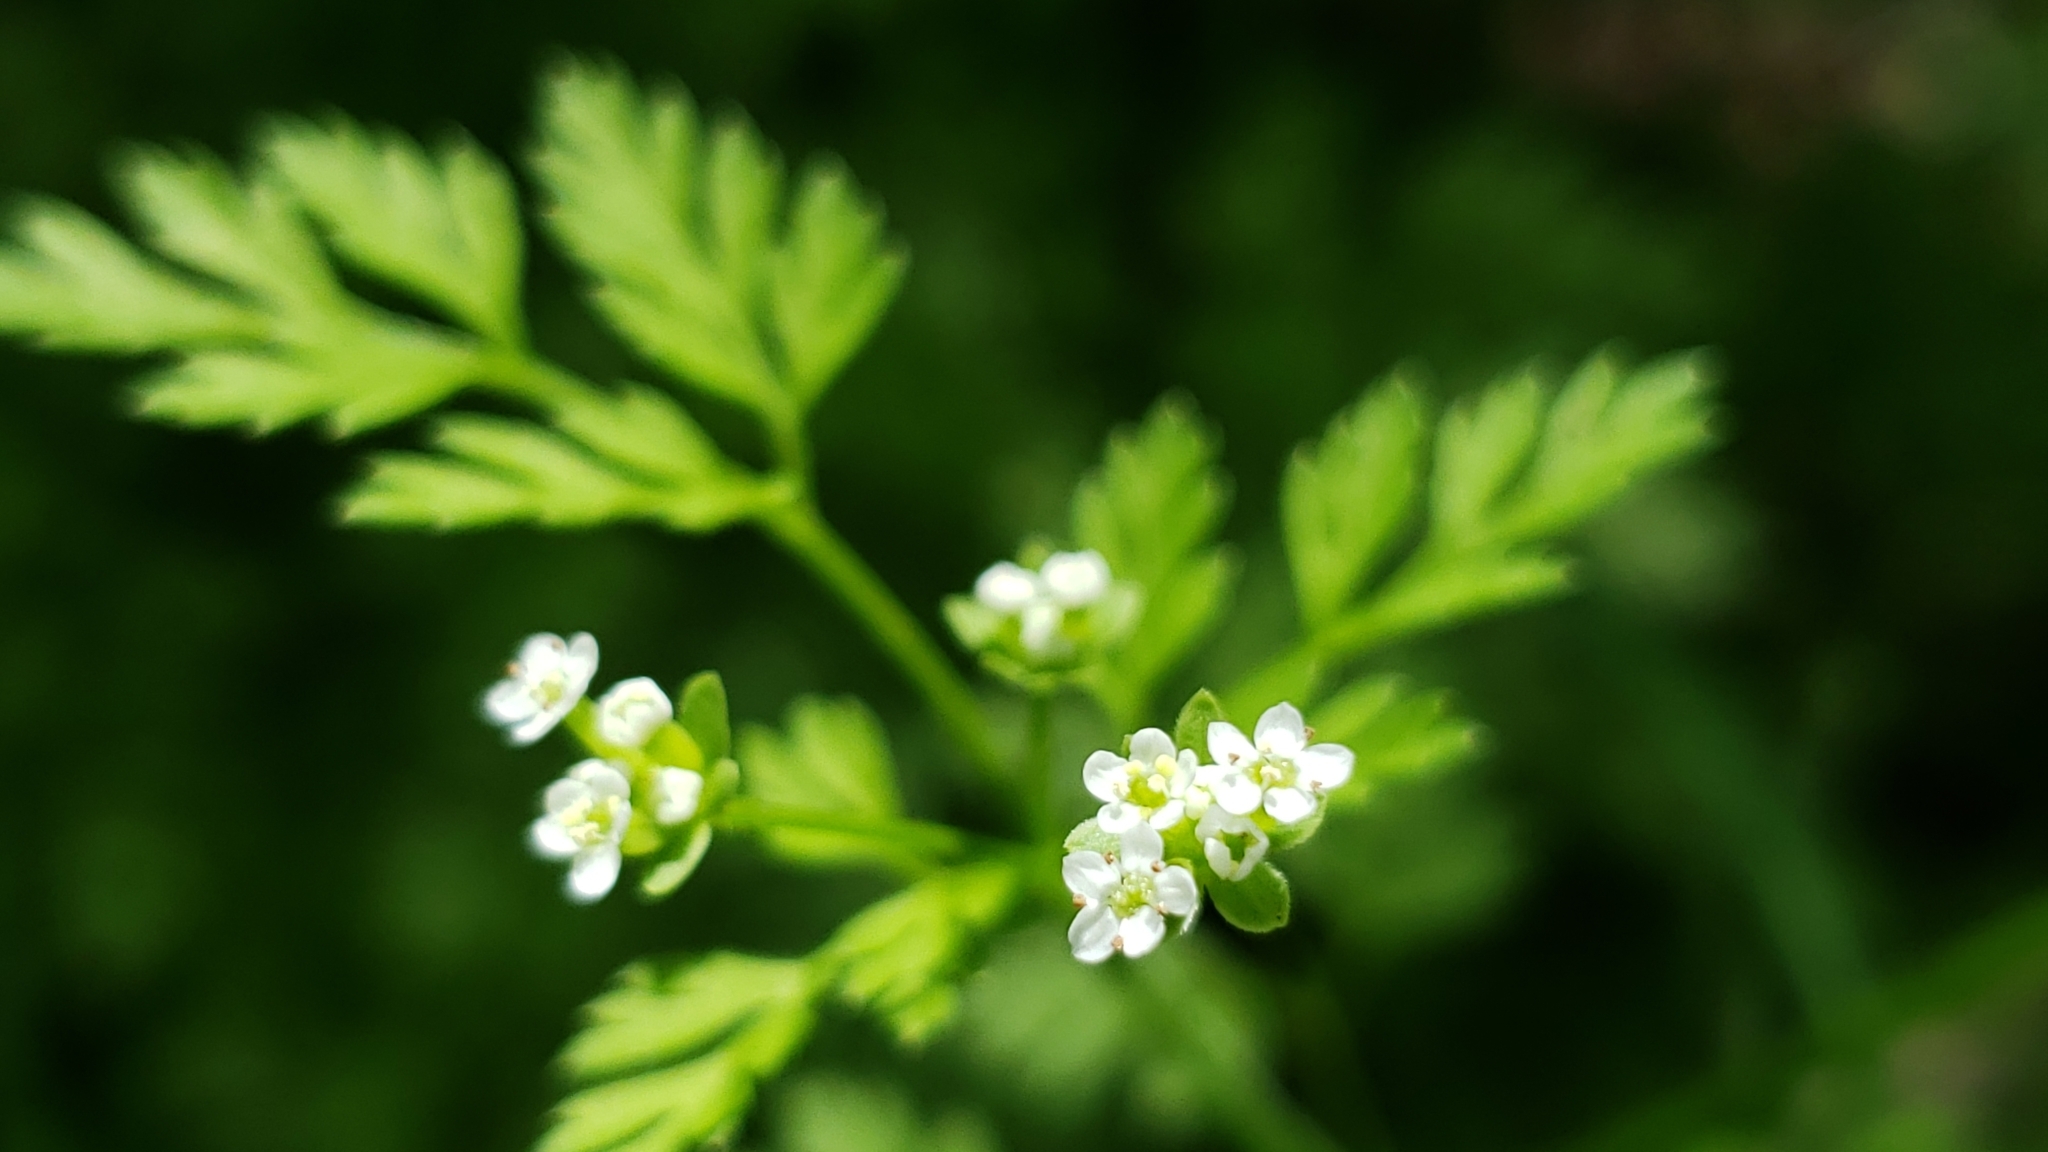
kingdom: Plantae
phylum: Tracheophyta
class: Magnoliopsida
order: Apiales
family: Apiaceae
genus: Chaerophyllum
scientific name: Chaerophyllum tainturieri
